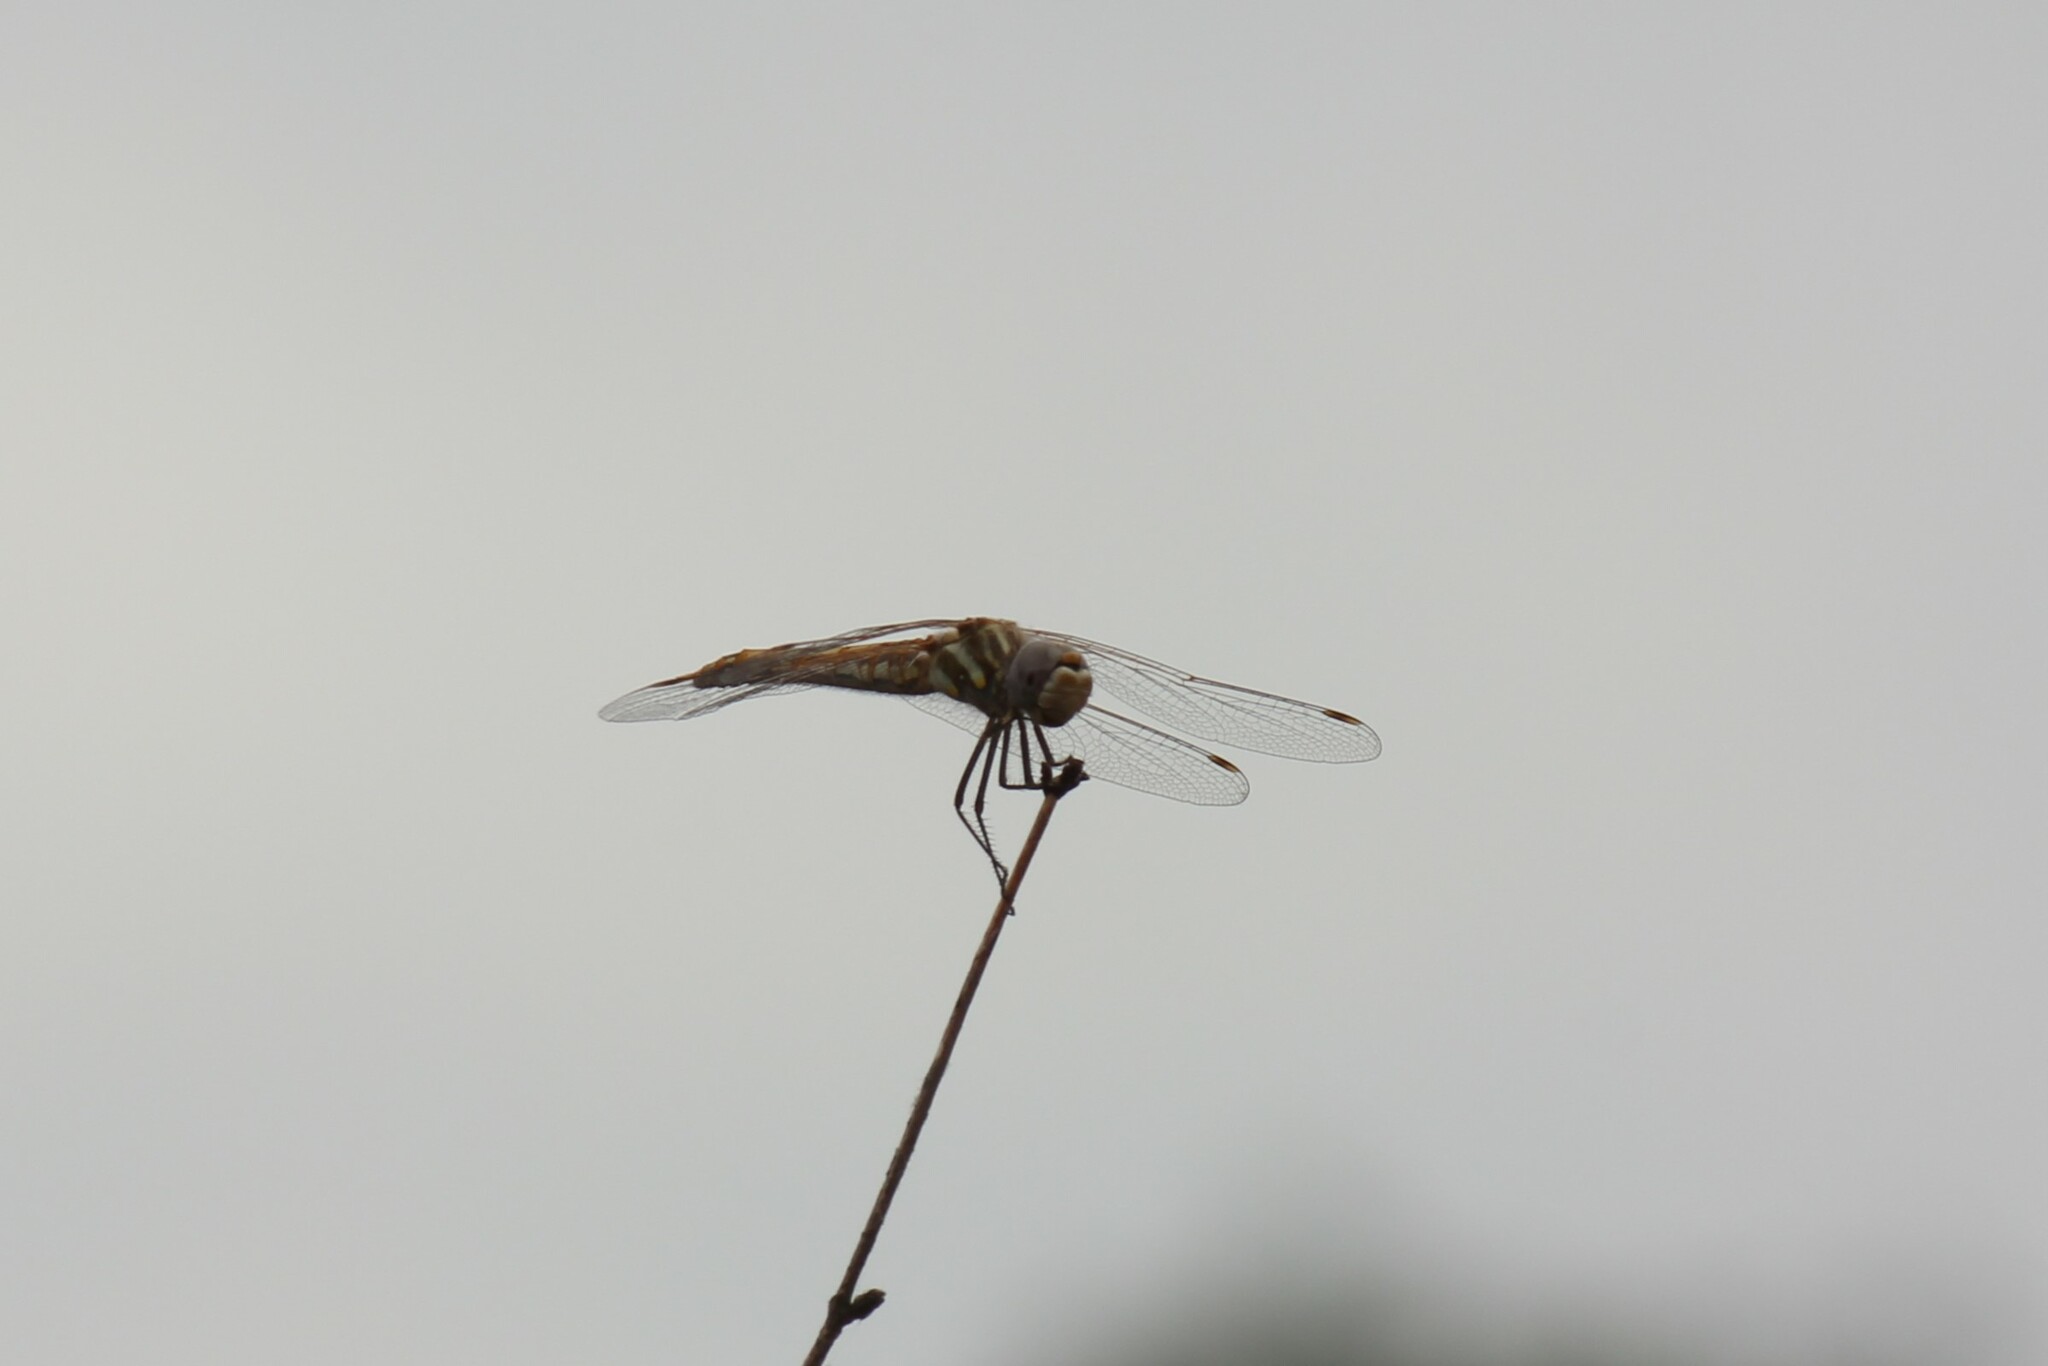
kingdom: Animalia
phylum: Arthropoda
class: Insecta
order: Odonata
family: Libellulidae
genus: Sympetrum
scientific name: Sympetrum corruptum
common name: Variegated meadowhawk
